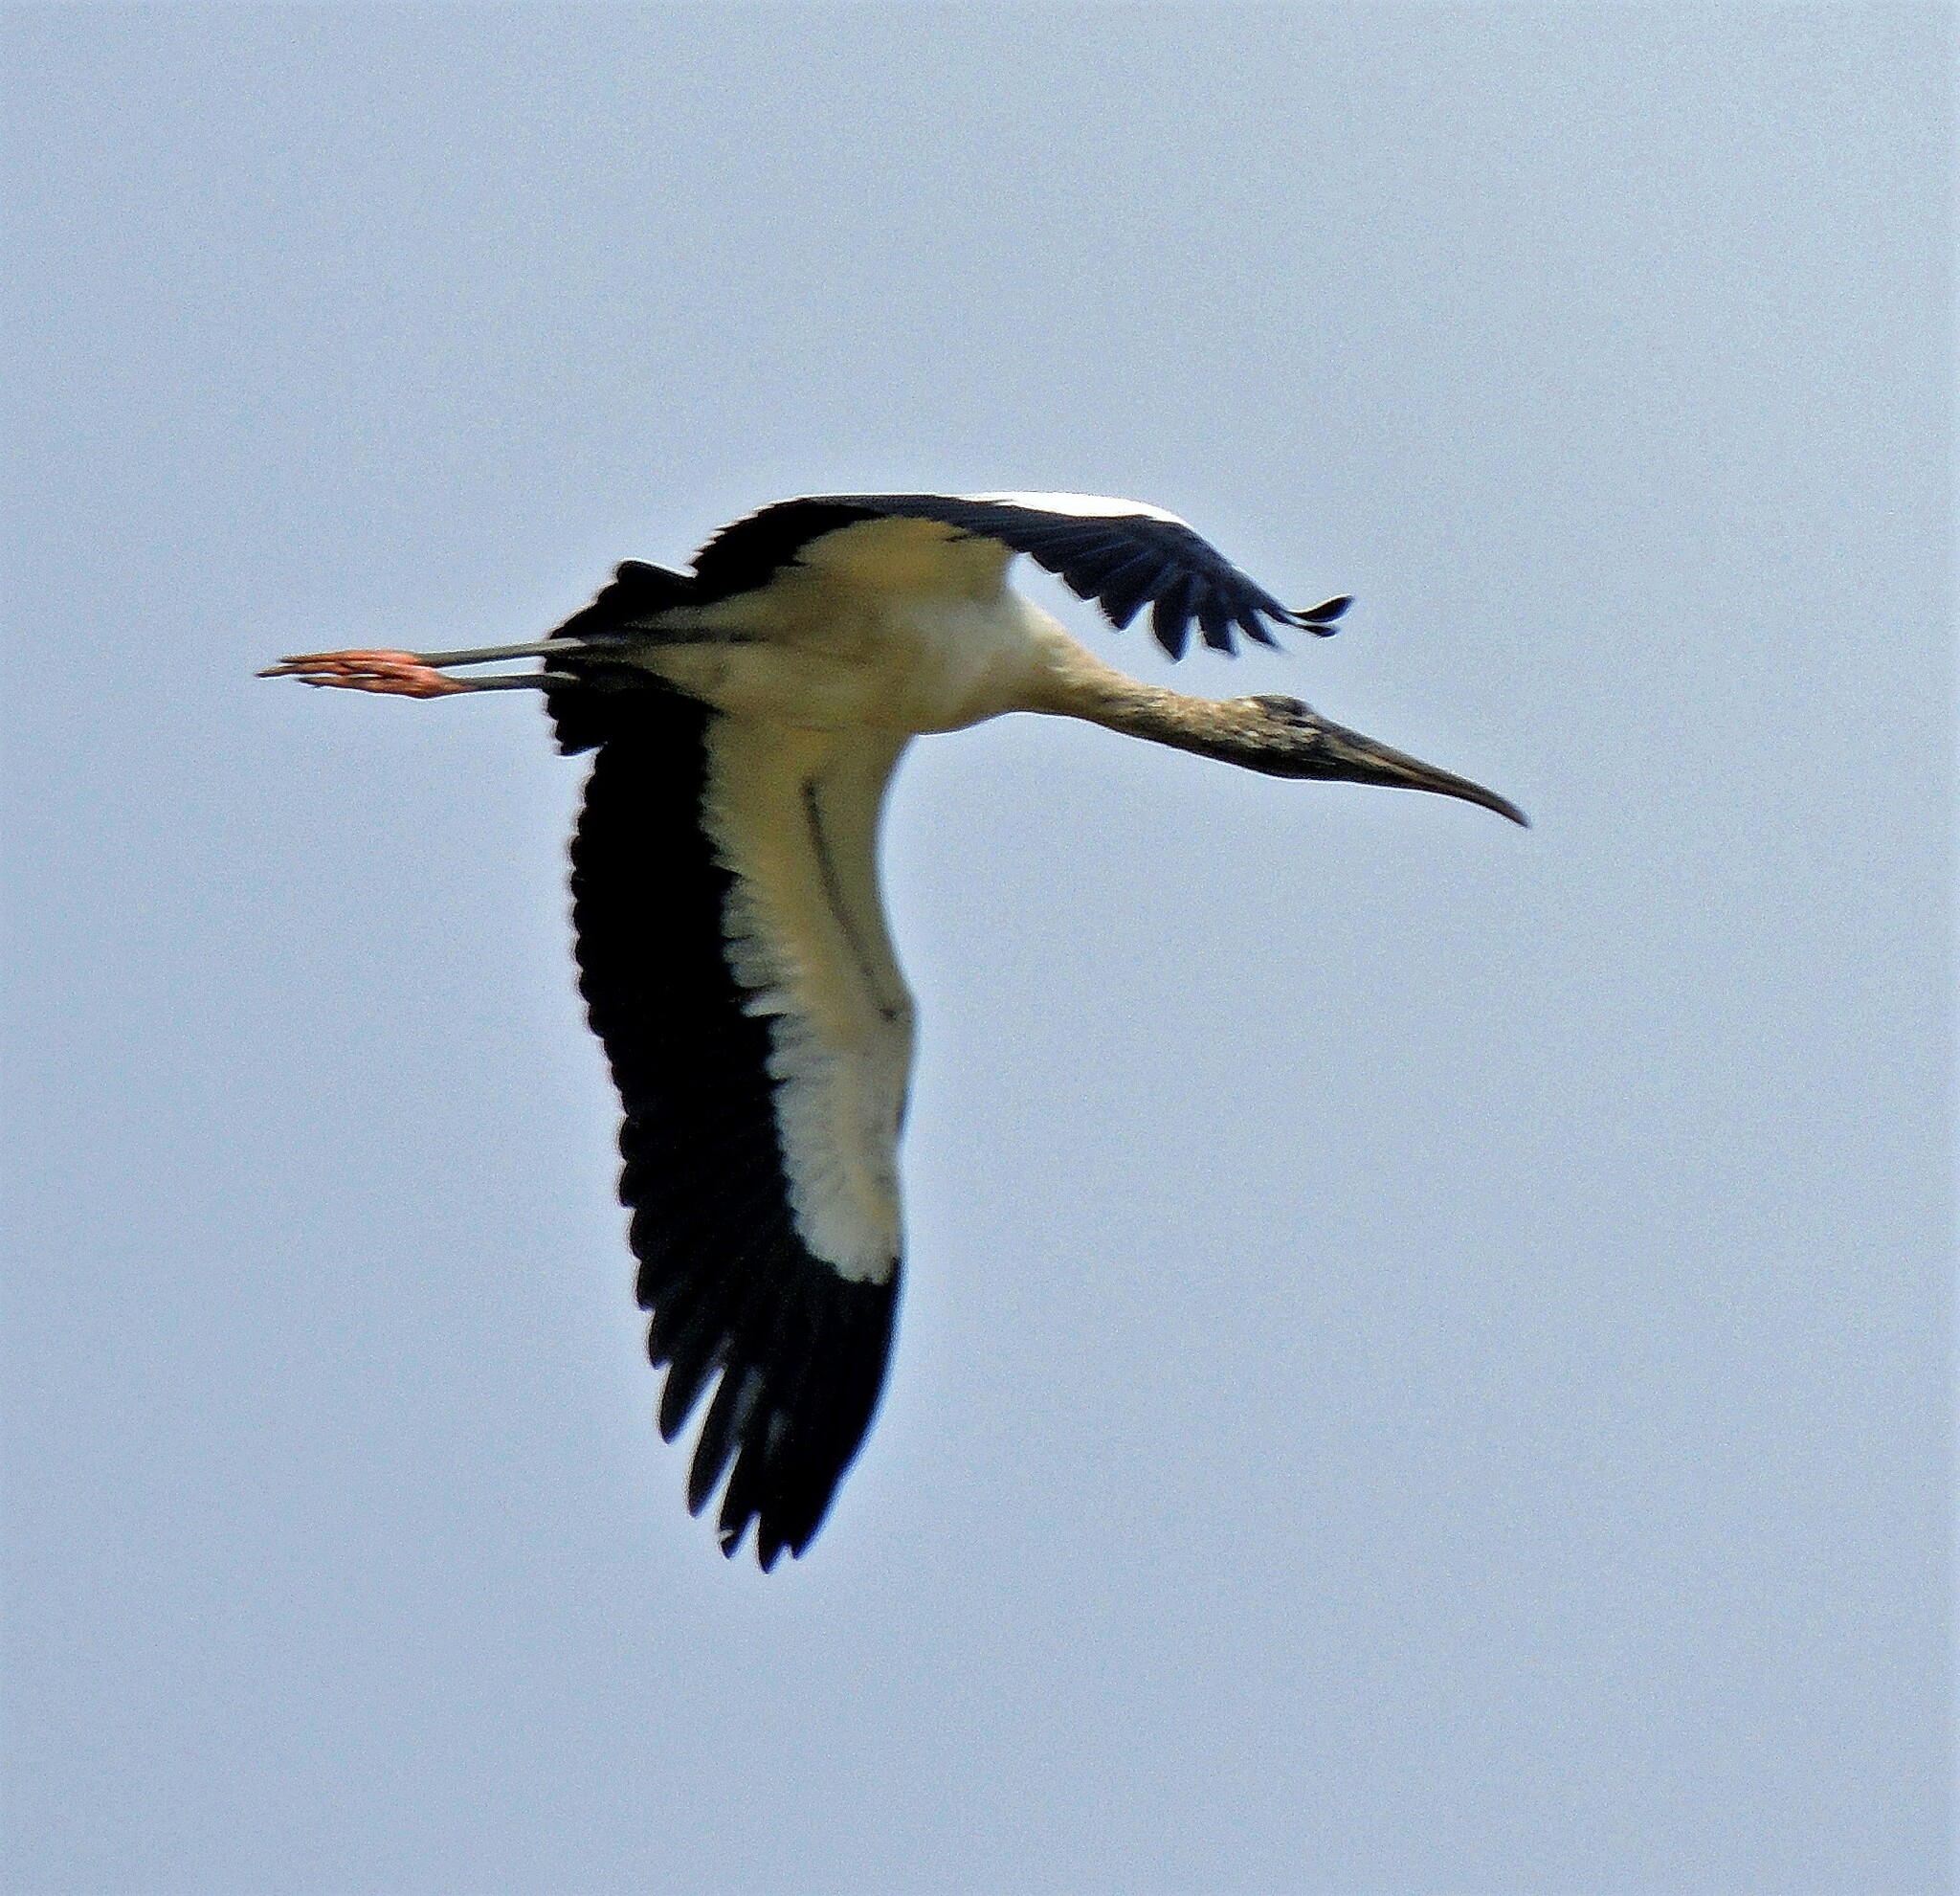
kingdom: Animalia
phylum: Chordata
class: Aves
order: Ciconiiformes
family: Ciconiidae
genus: Mycteria
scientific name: Mycteria americana
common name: Wood stork
